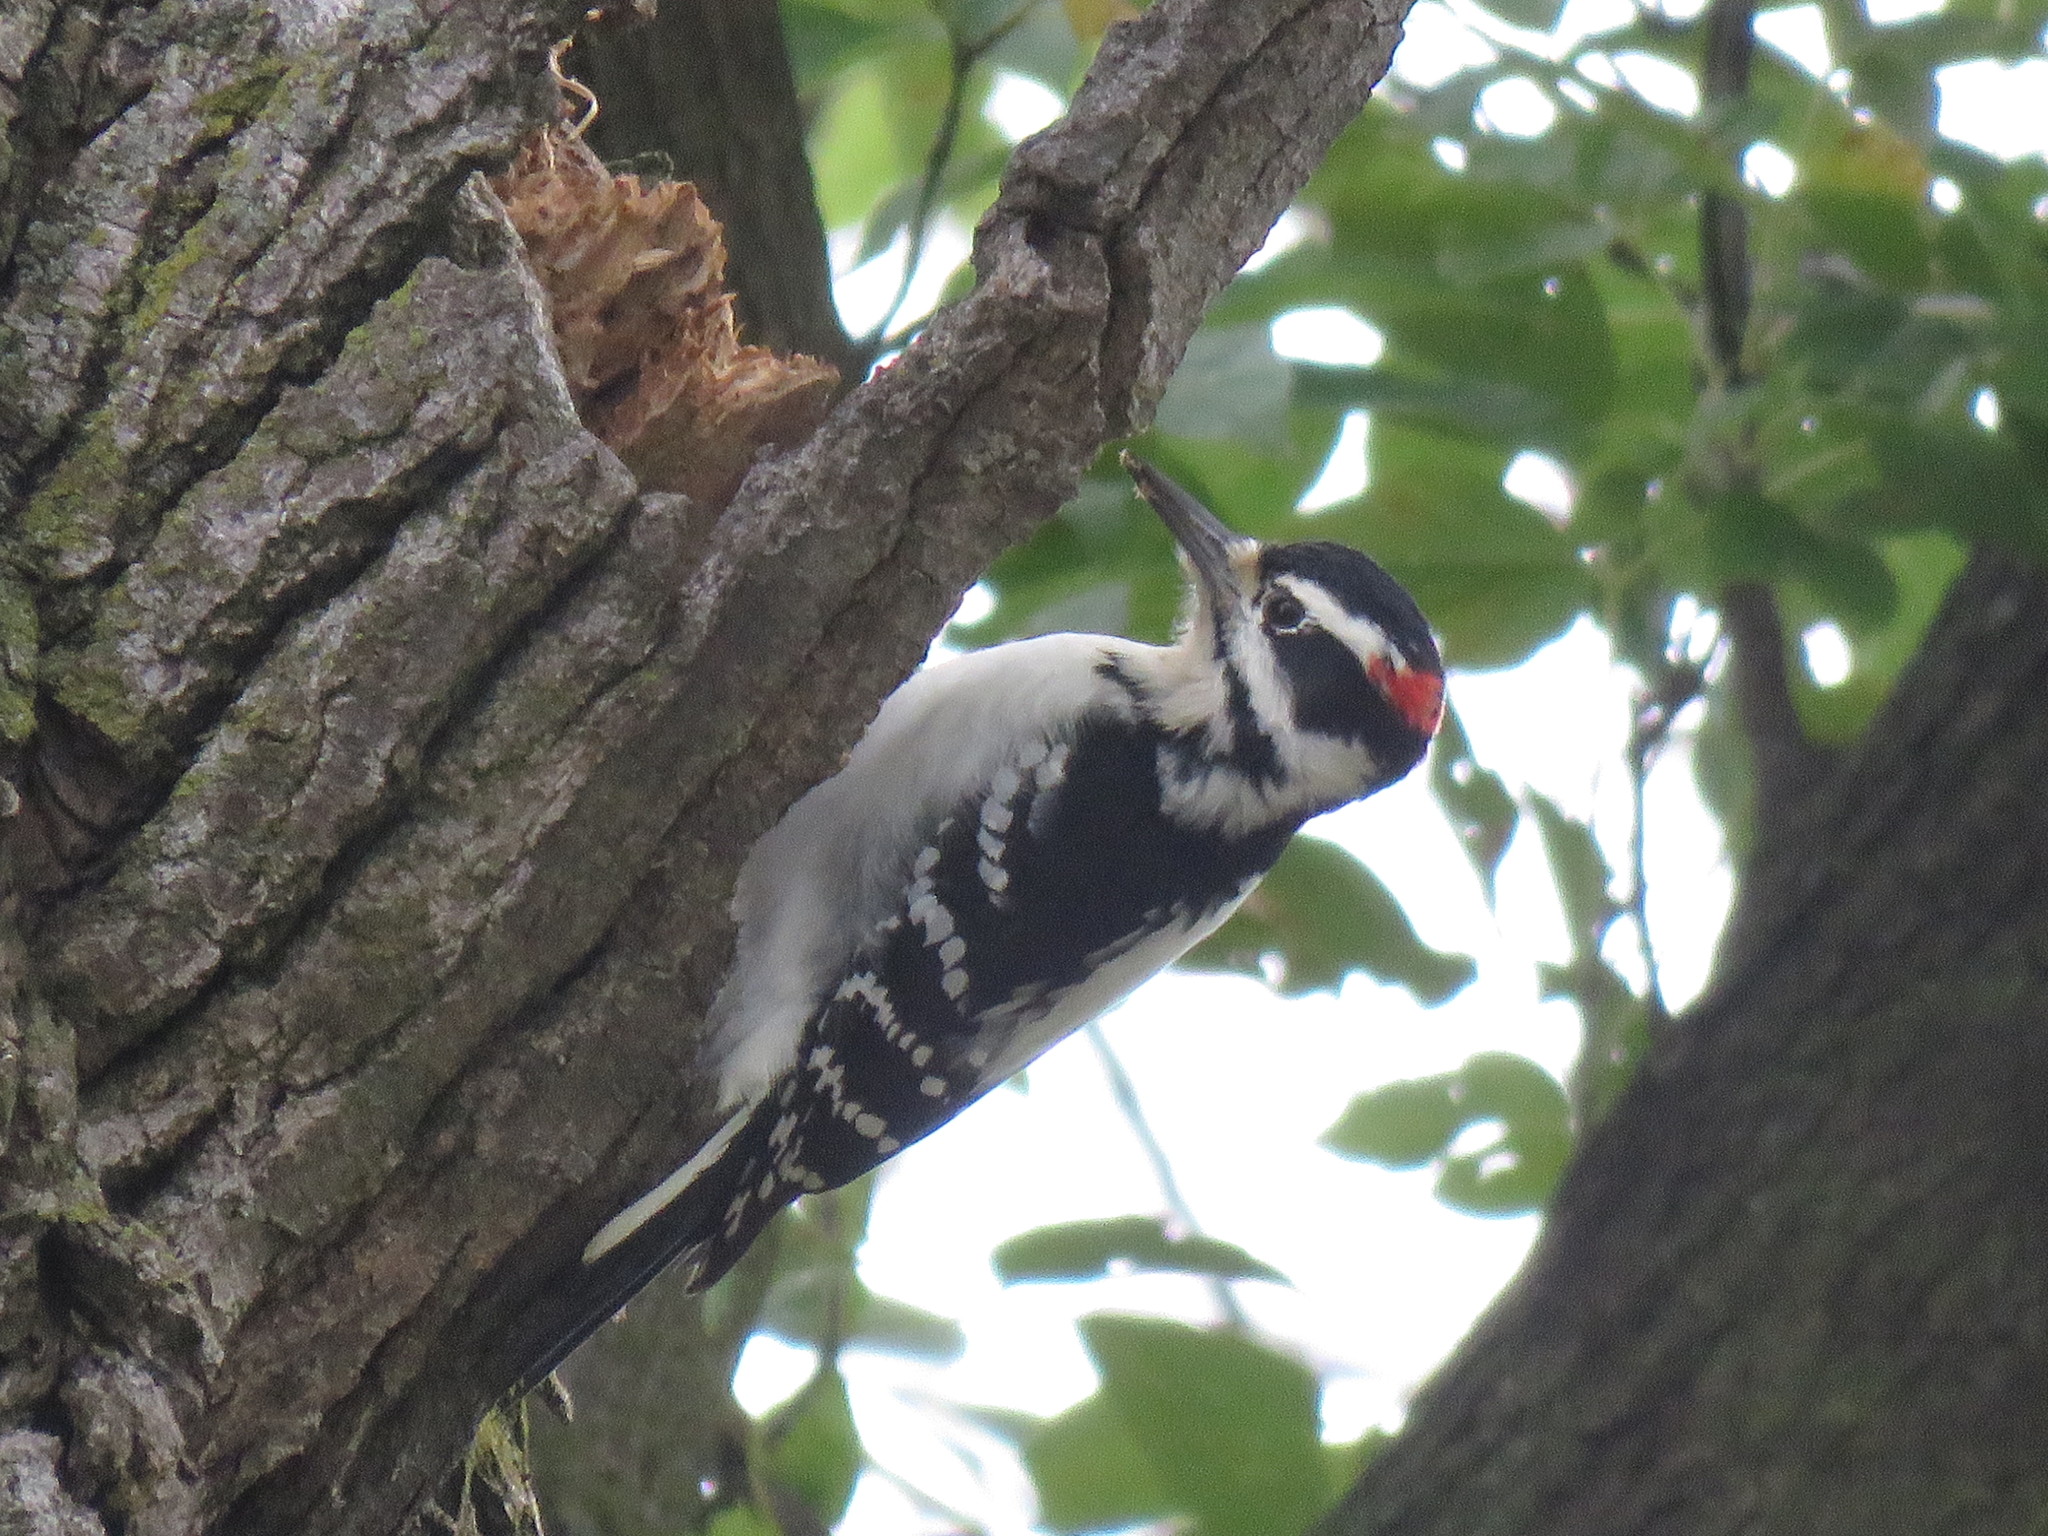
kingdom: Animalia
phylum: Chordata
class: Aves
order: Piciformes
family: Picidae
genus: Leuconotopicus
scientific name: Leuconotopicus villosus
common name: Hairy woodpecker
